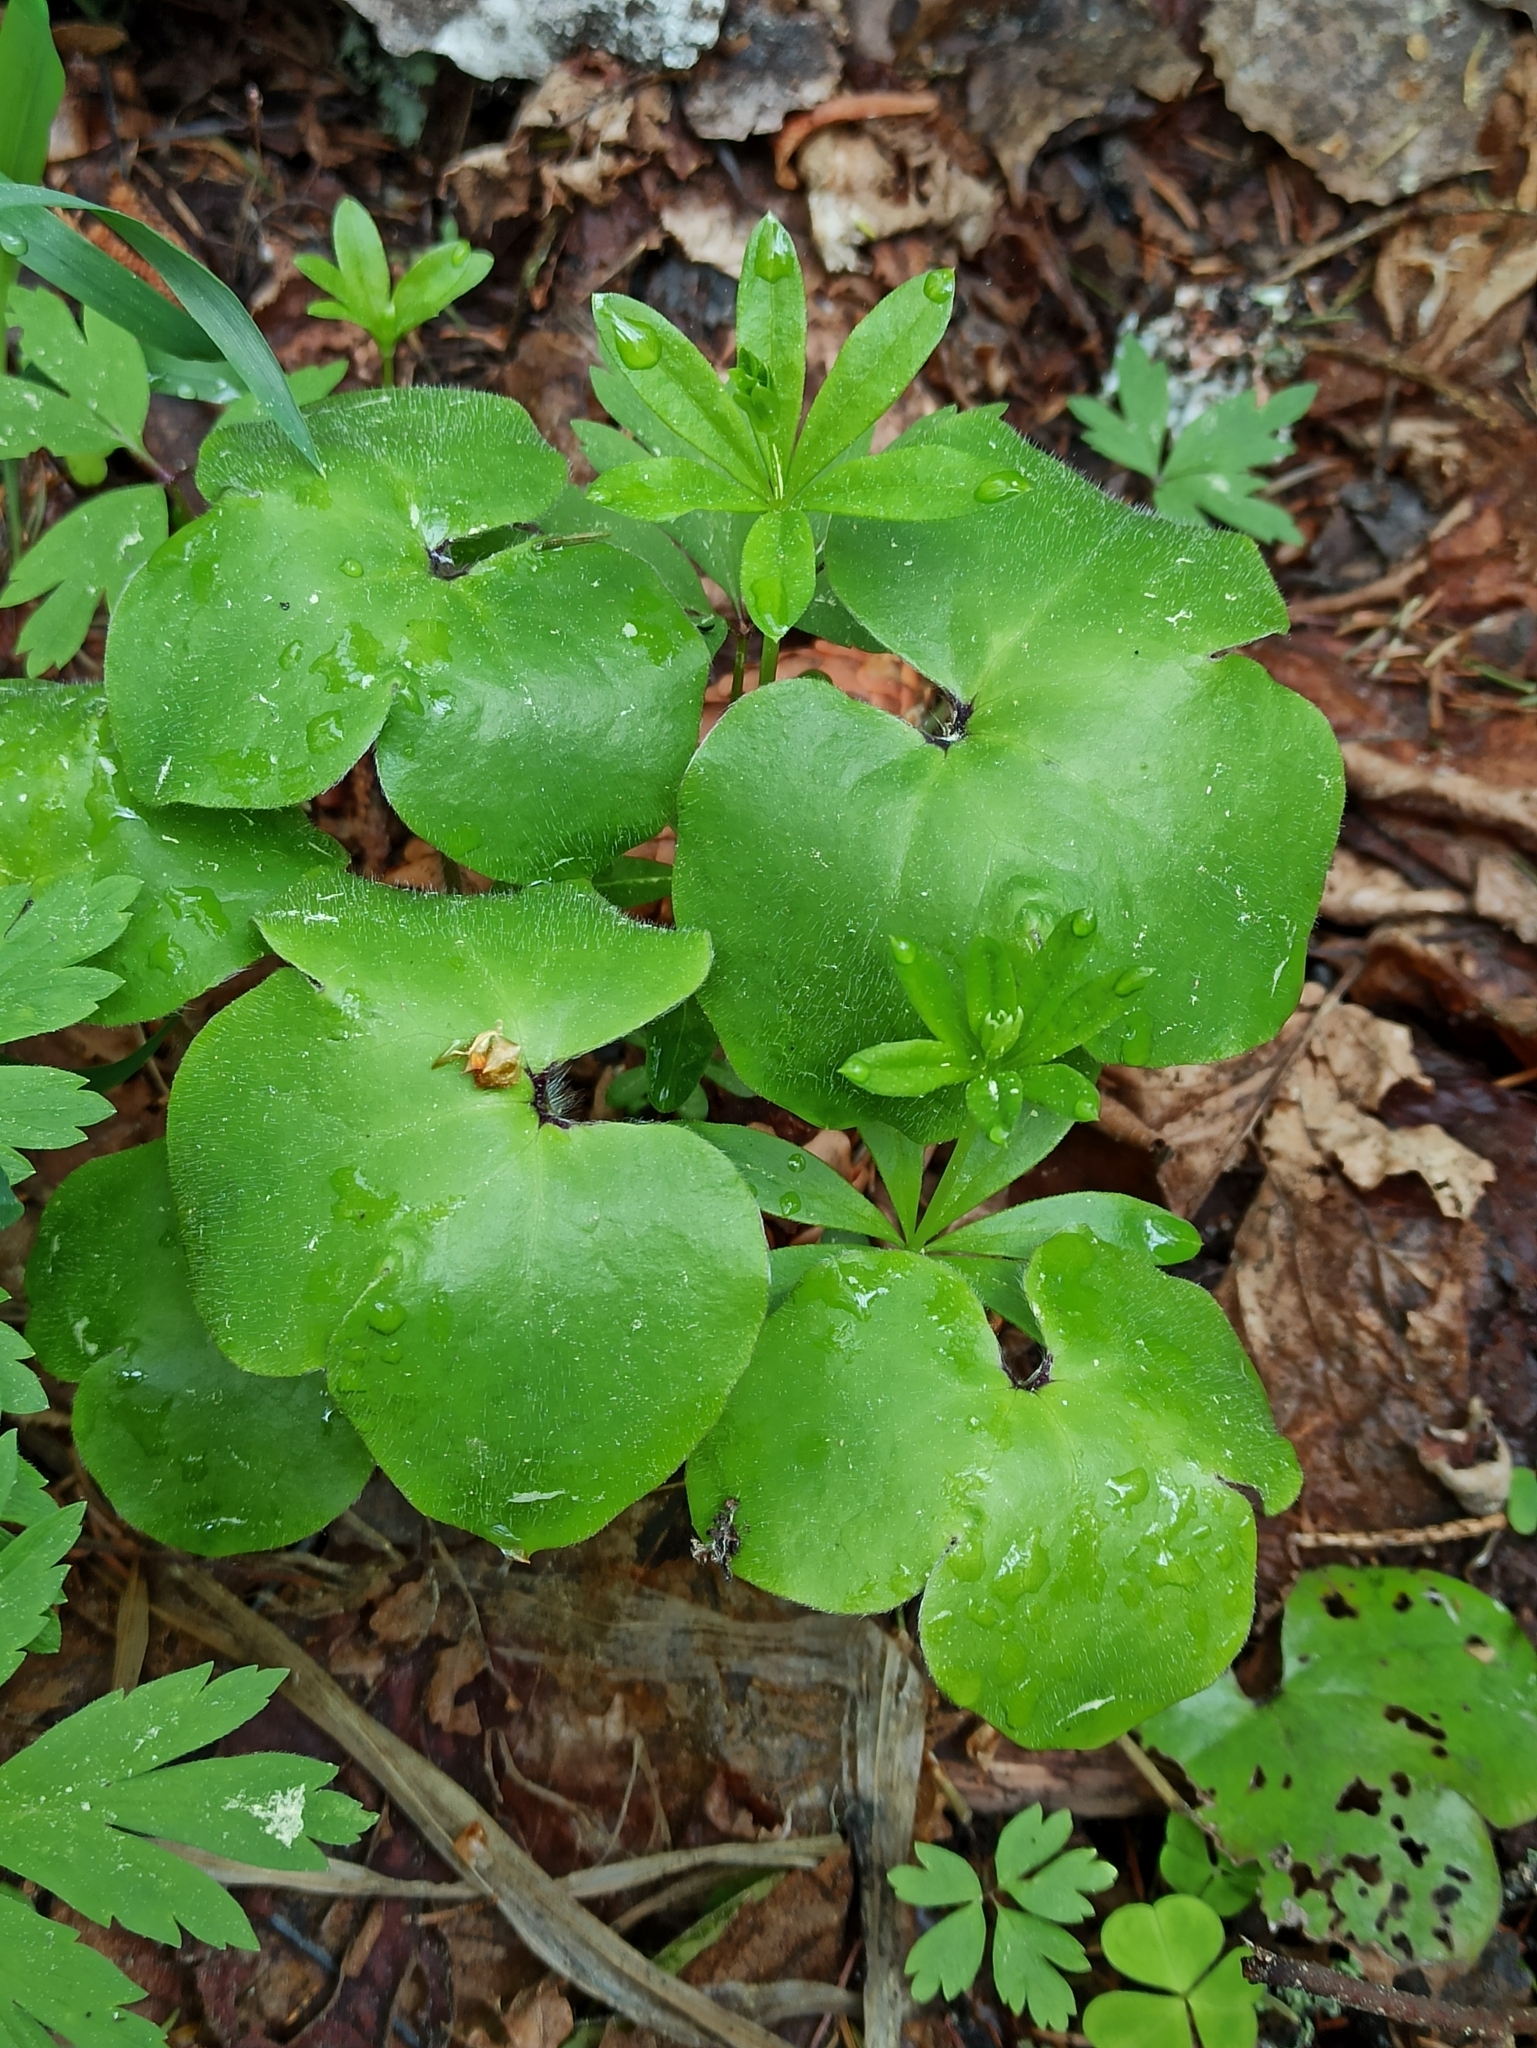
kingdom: Plantae
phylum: Tracheophyta
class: Magnoliopsida
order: Ranunculales
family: Ranunculaceae
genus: Hepatica
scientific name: Hepatica nobilis
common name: Liverleaf
